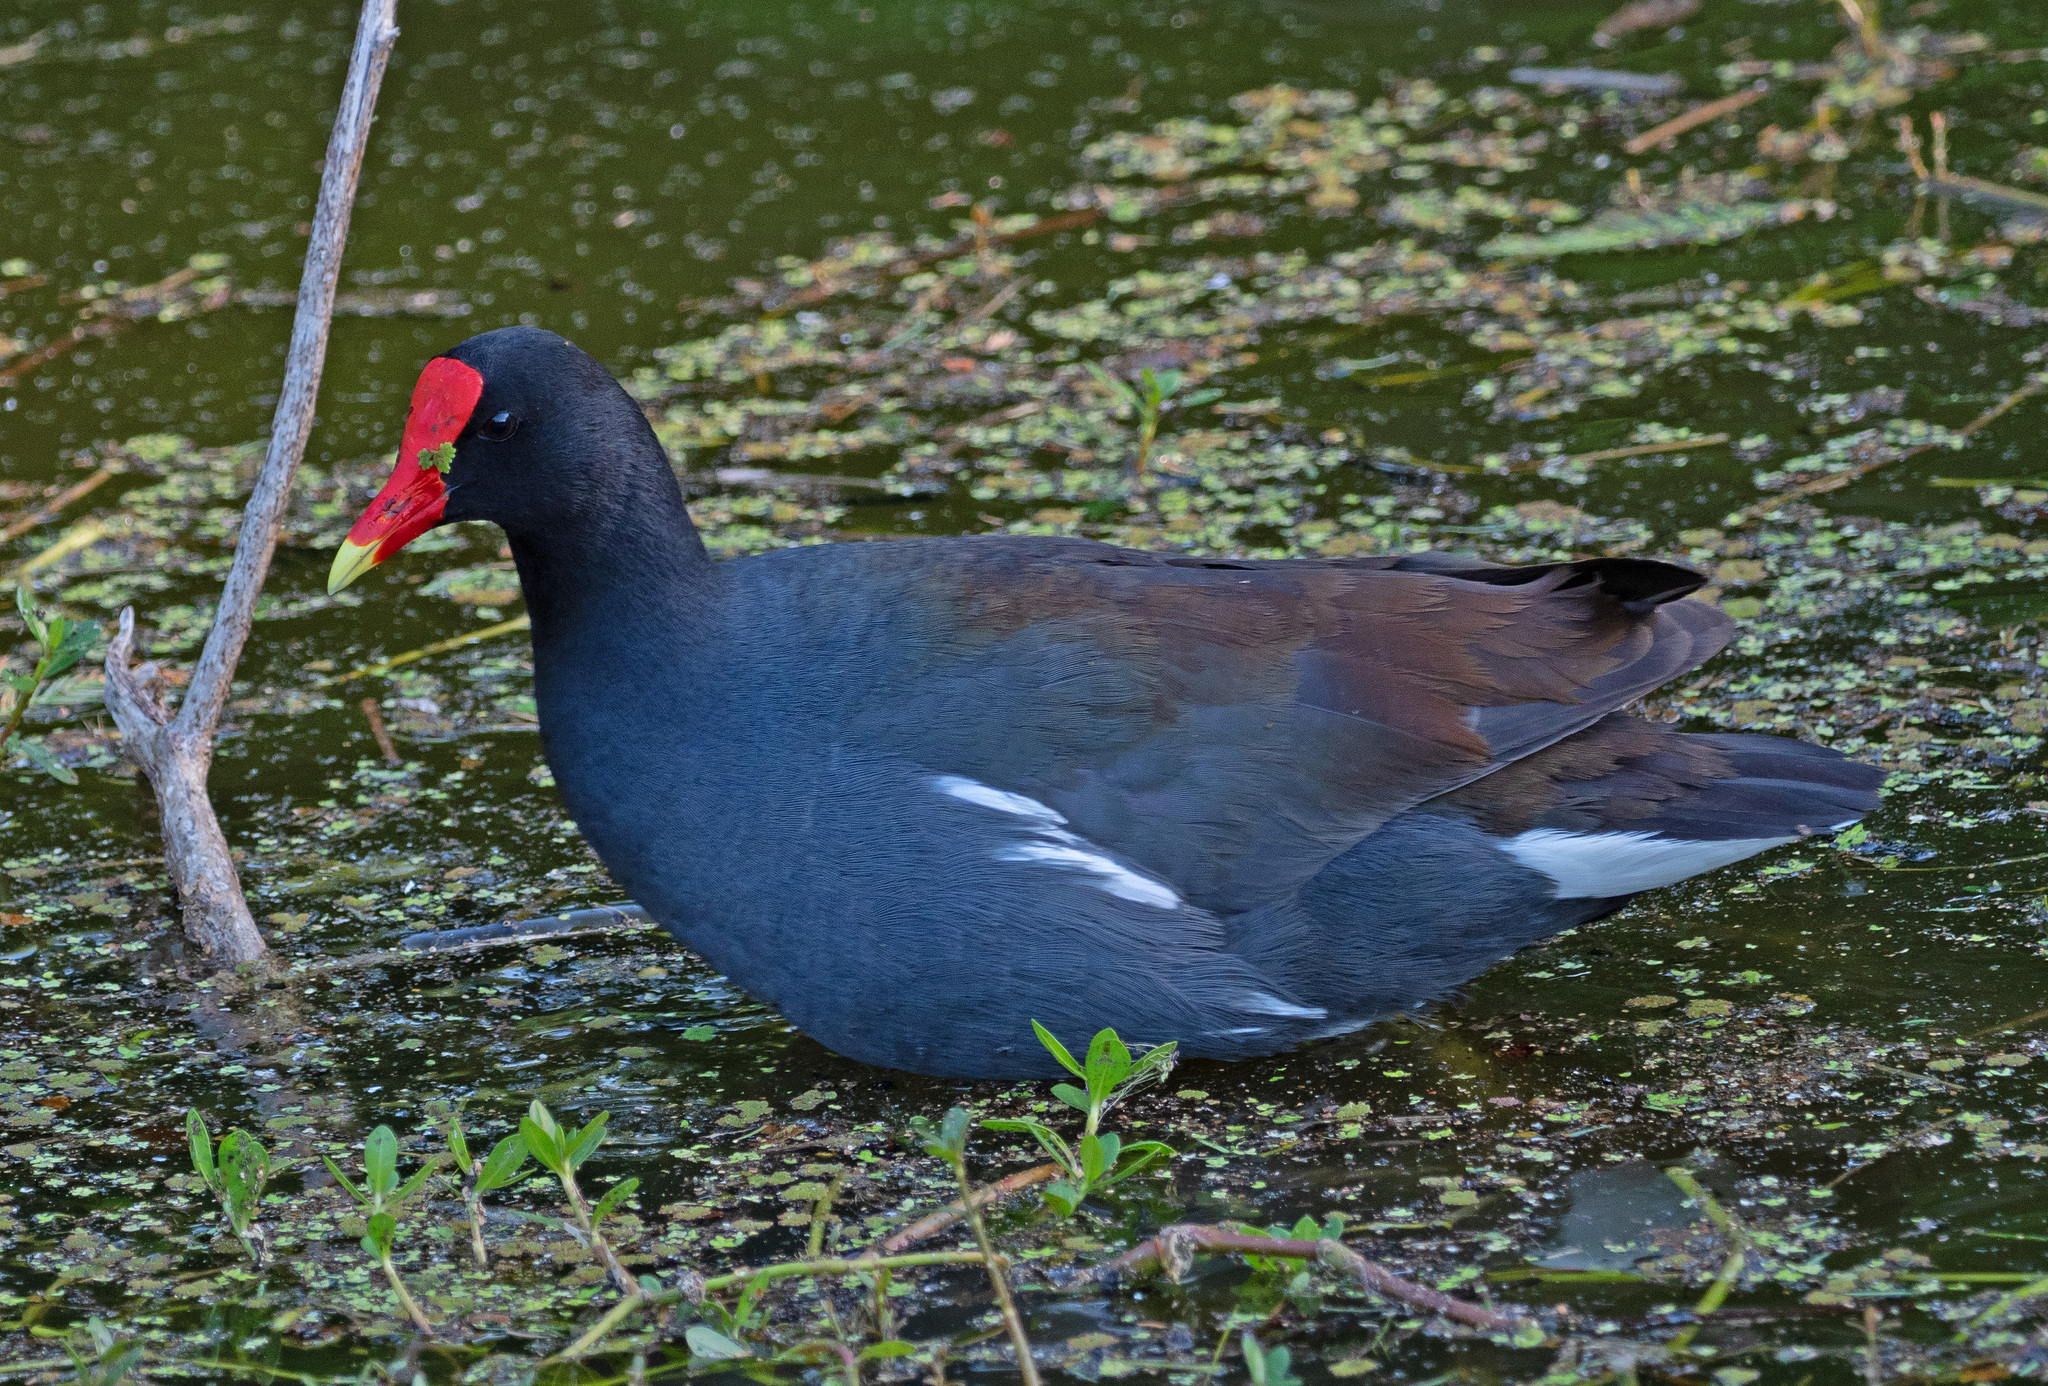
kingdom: Animalia
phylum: Chordata
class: Aves
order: Gruiformes
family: Rallidae
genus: Gallinula
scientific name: Gallinula chloropus
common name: Common moorhen
